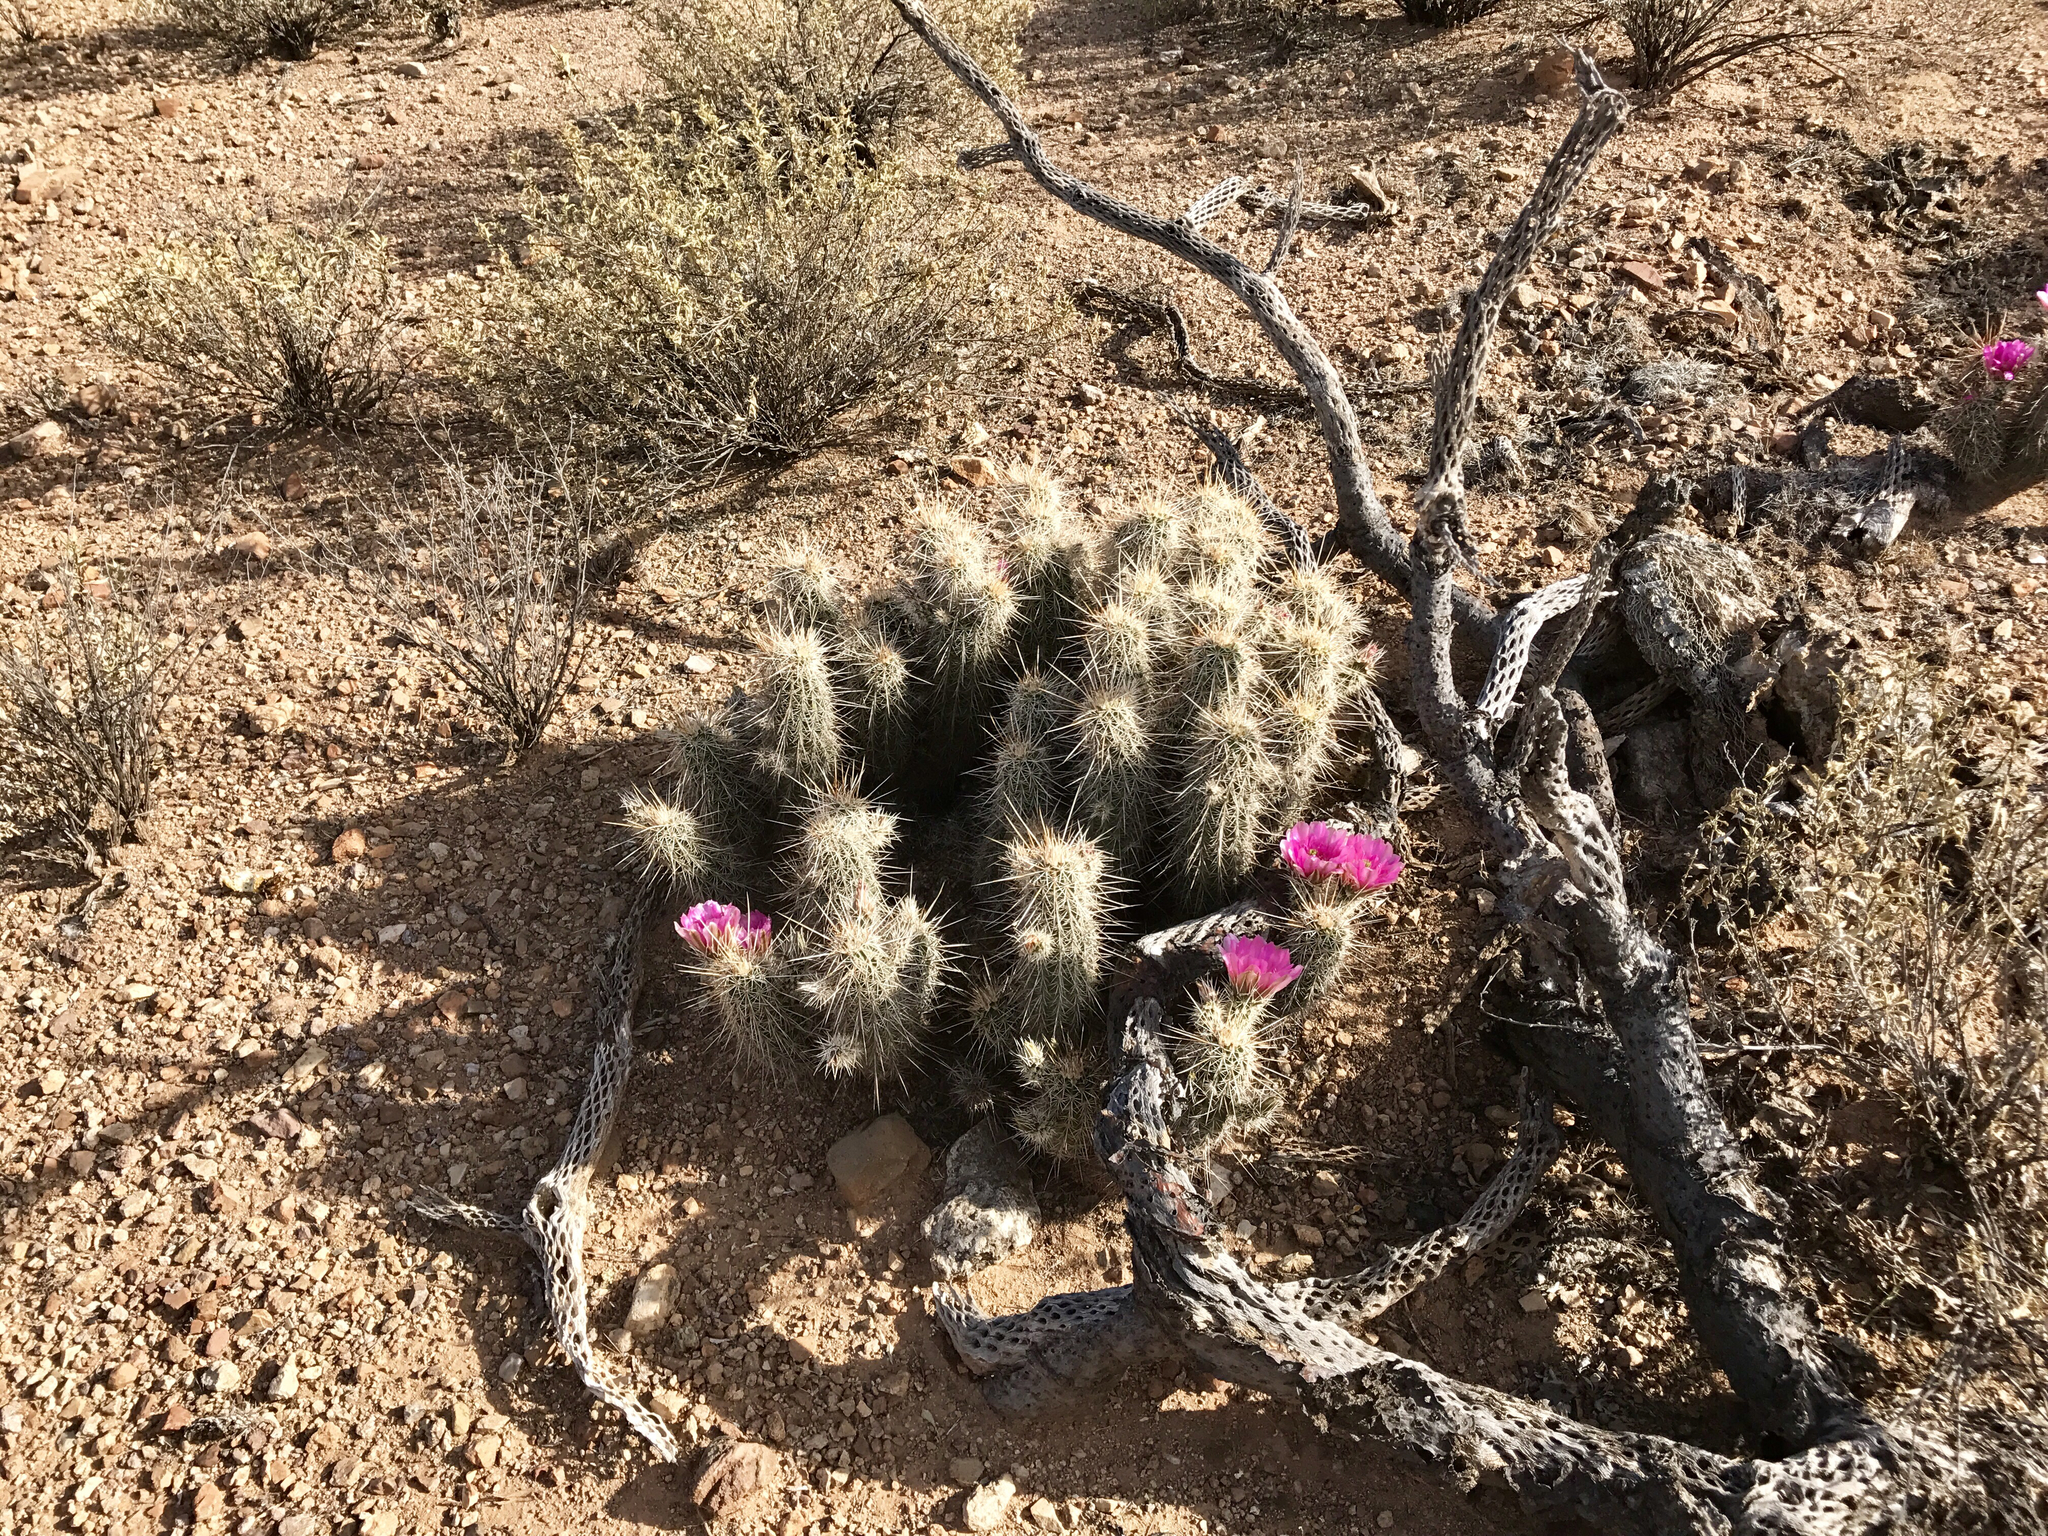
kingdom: Plantae
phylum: Tracheophyta
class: Magnoliopsida
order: Caryophyllales
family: Cactaceae
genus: Echinocereus
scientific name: Echinocereus fasciculatus
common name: Bundle hedgehog
